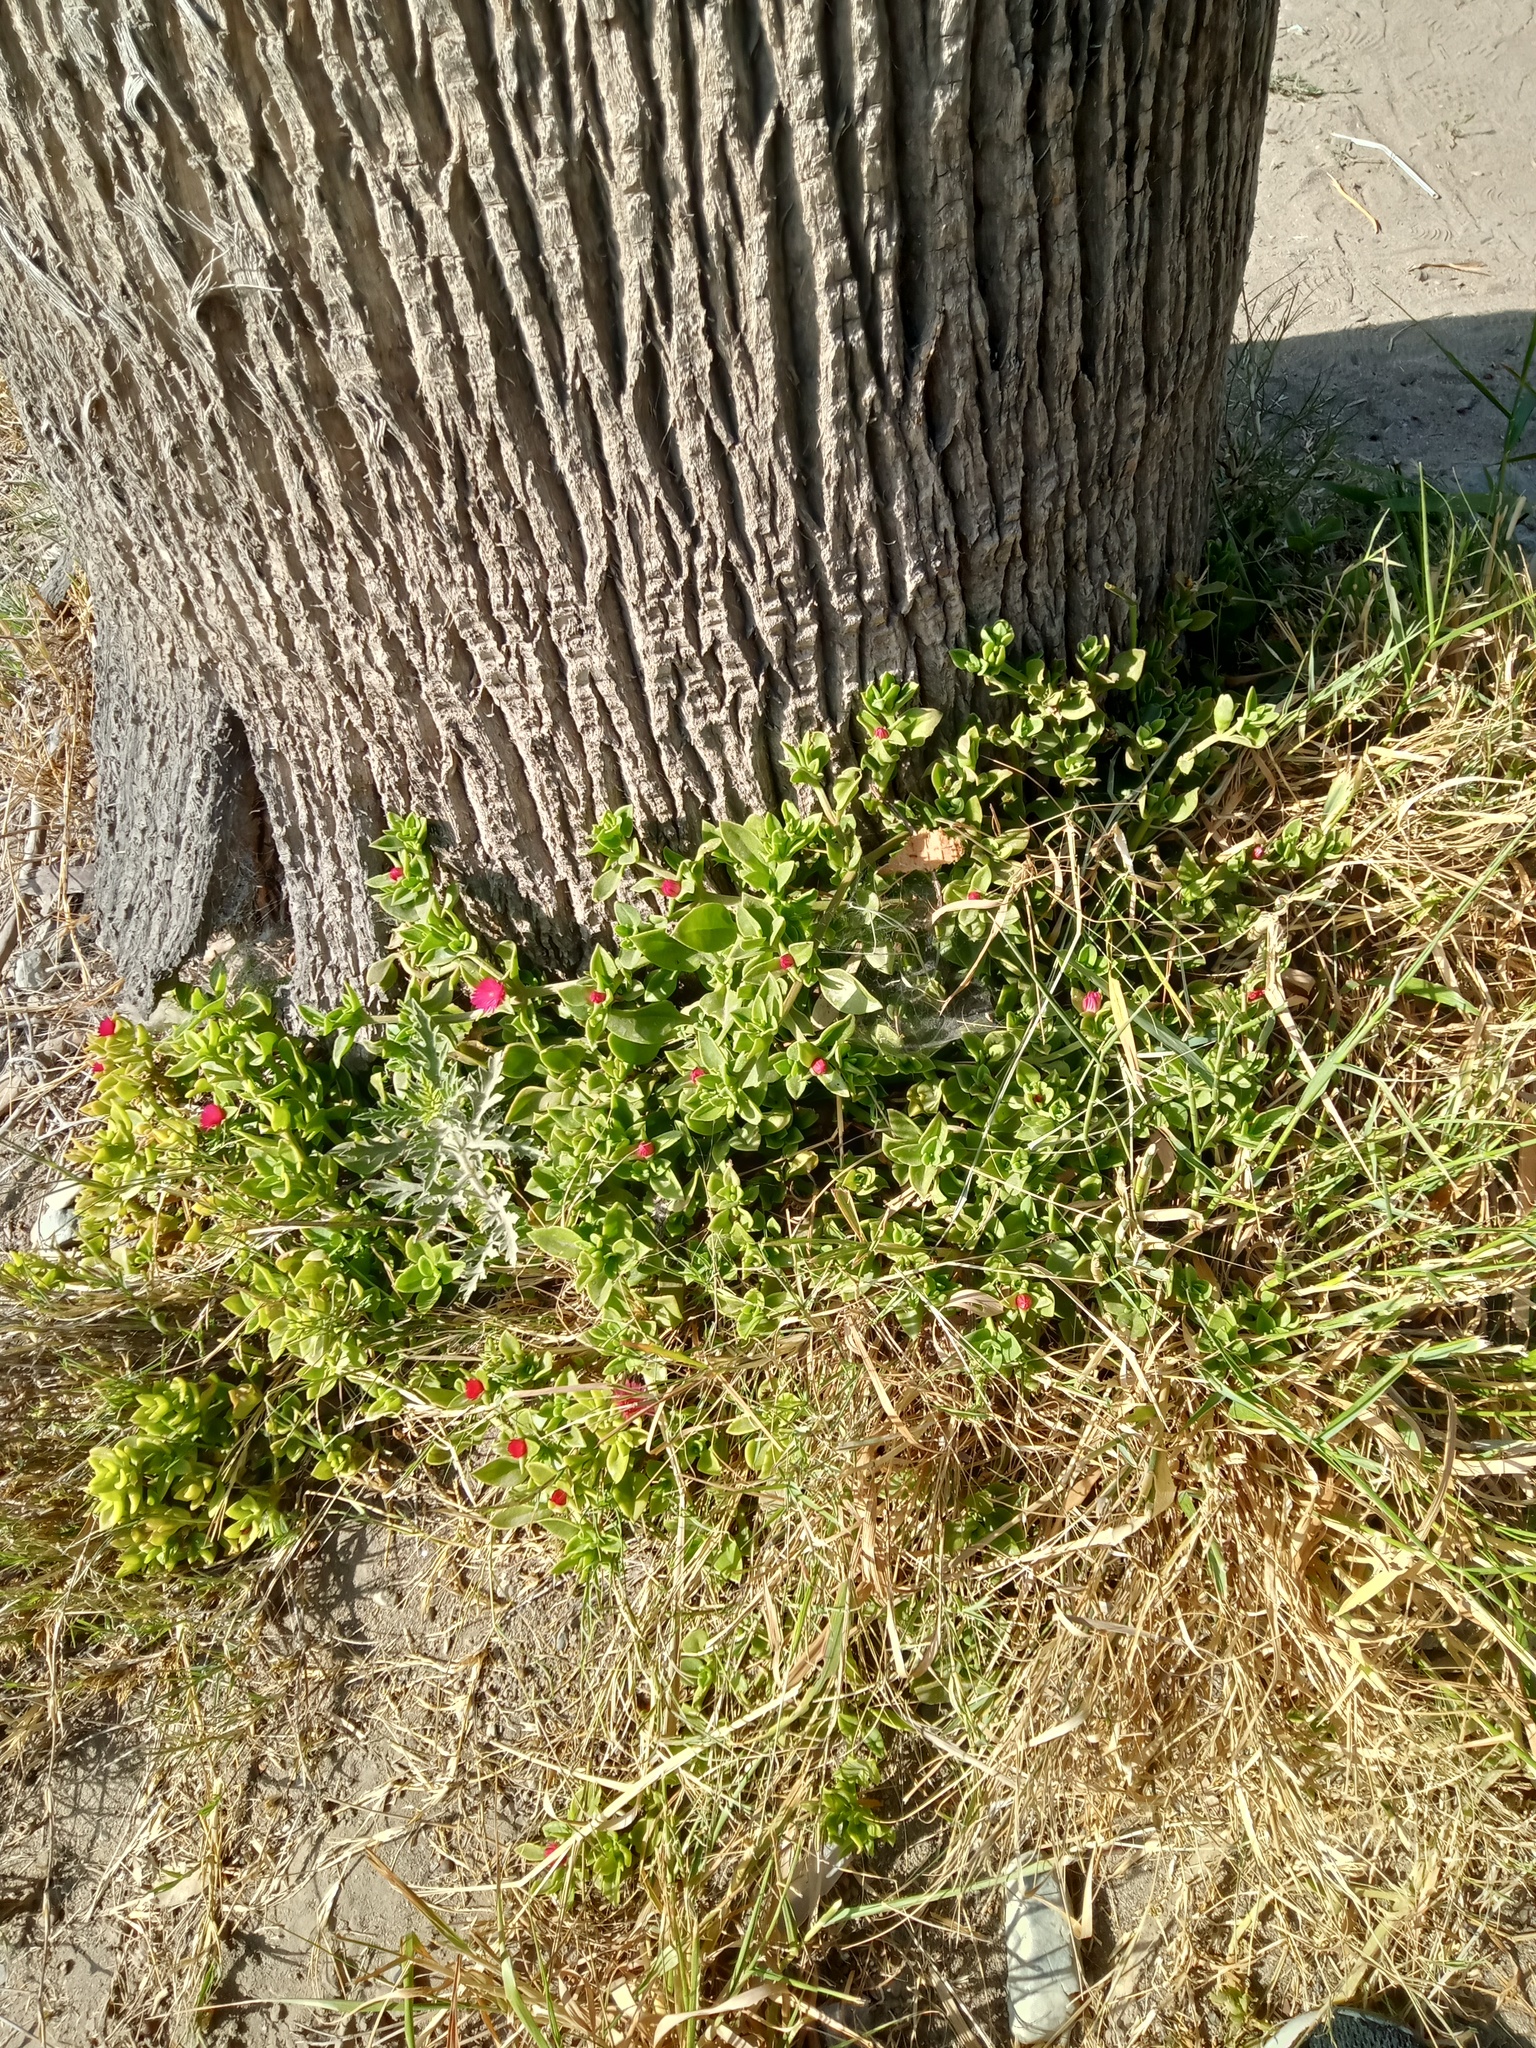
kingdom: Plantae
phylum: Tracheophyta
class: Magnoliopsida
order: Caryophyllales
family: Aizoaceae
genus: Mesembryanthemum
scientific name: Mesembryanthemum cordifolium
